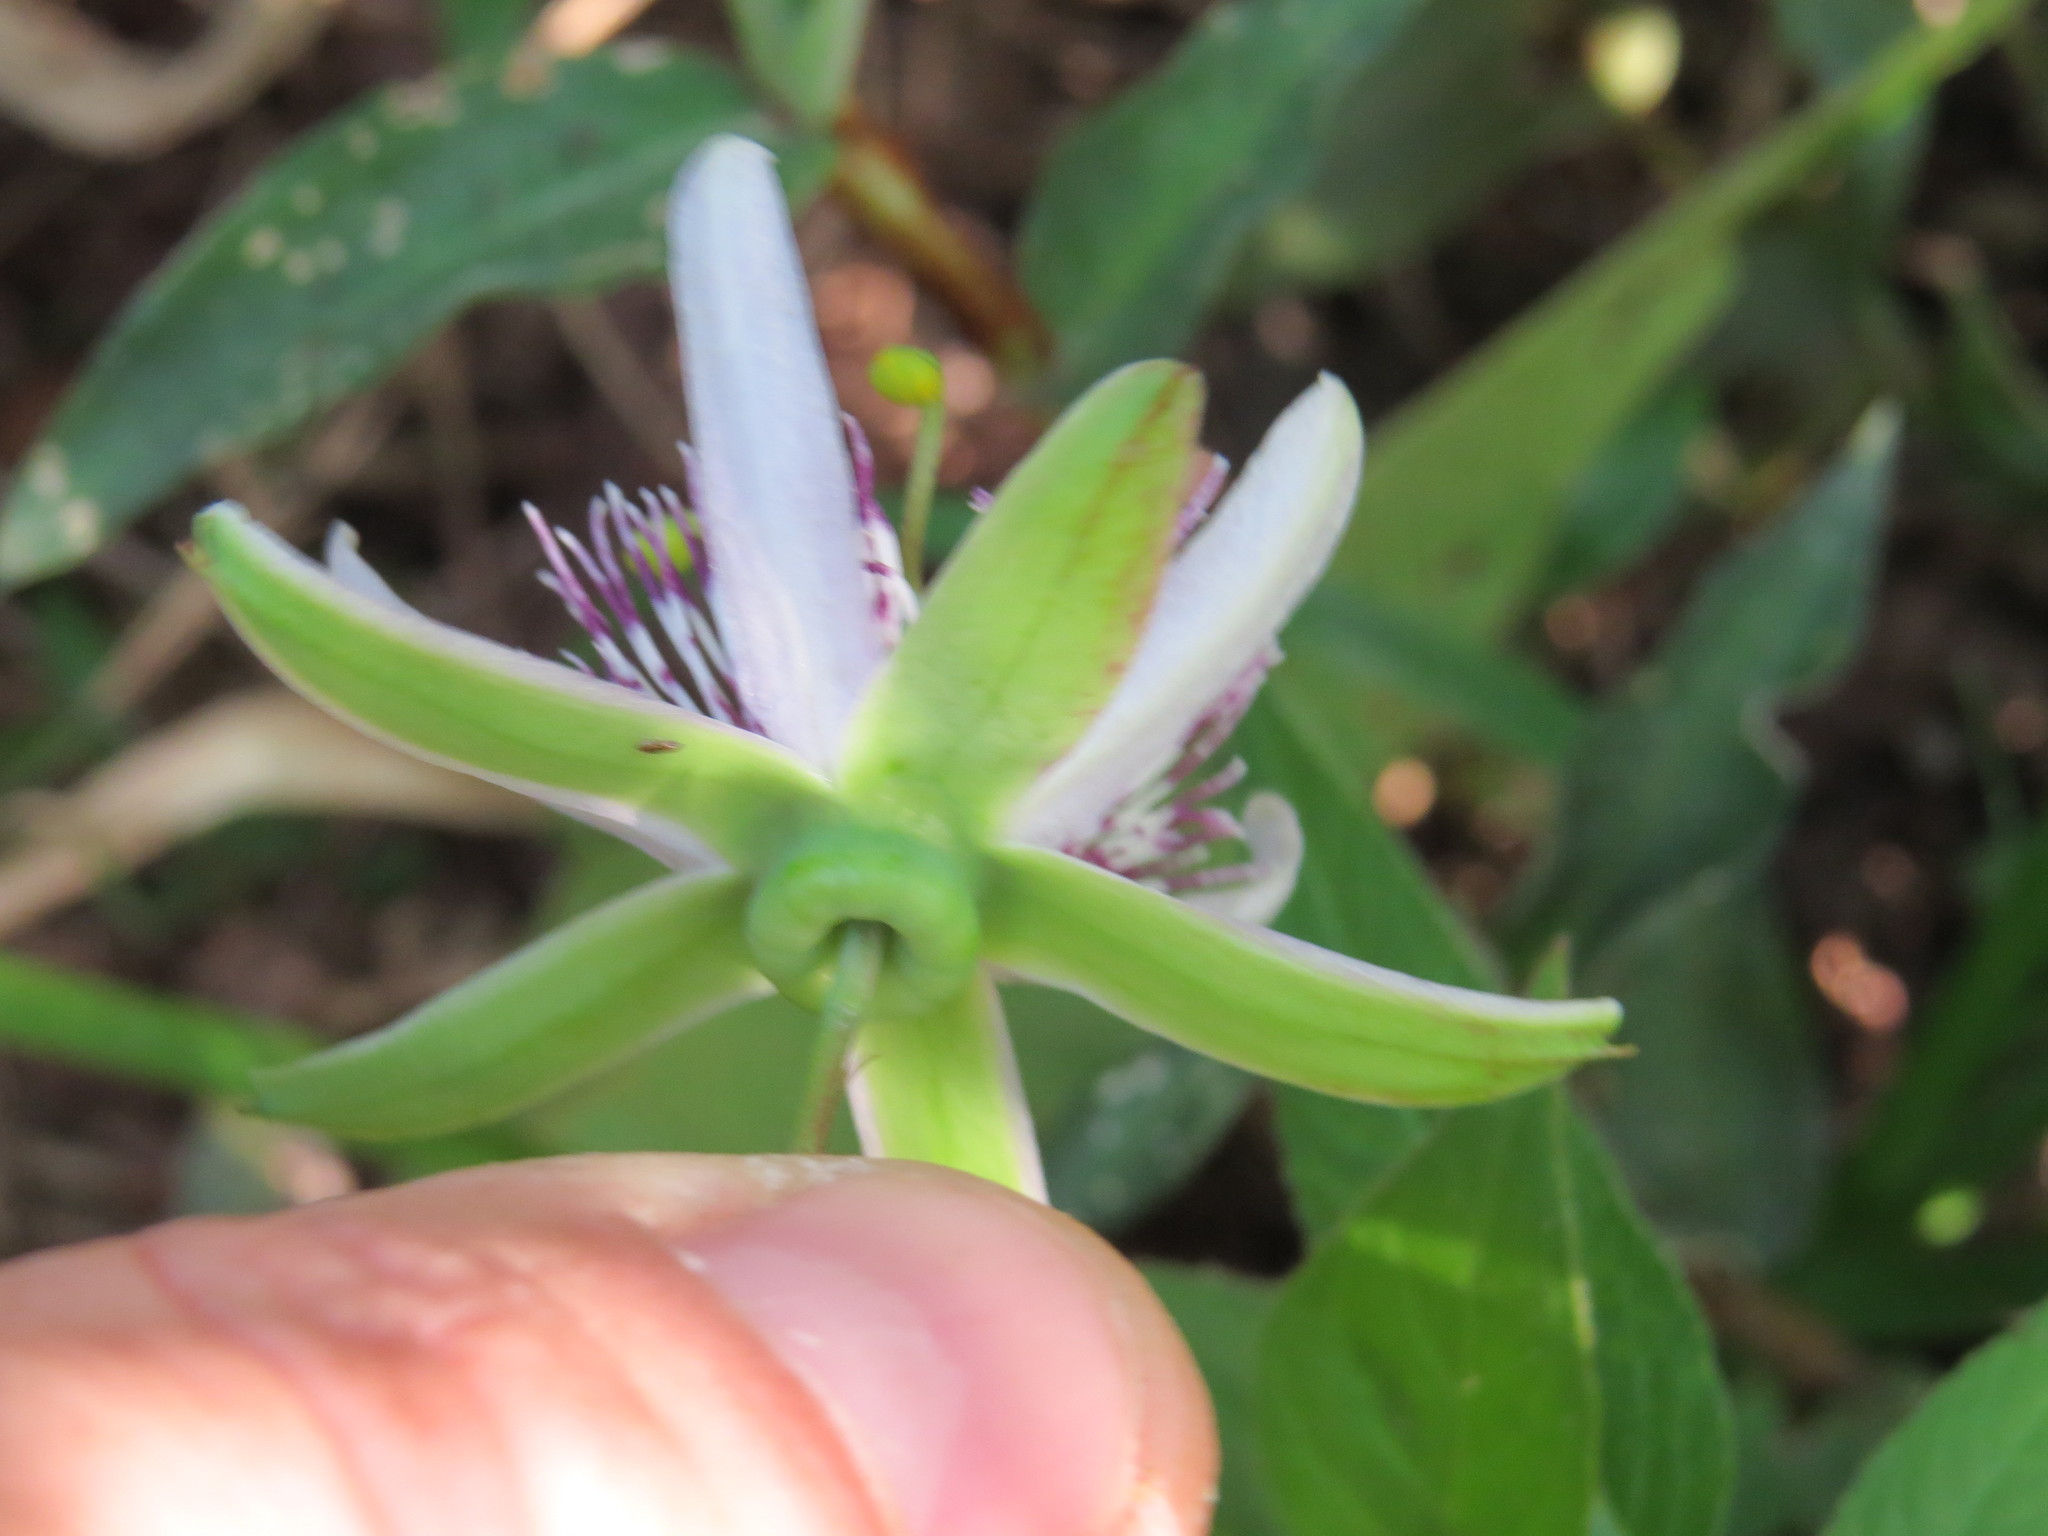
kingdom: Plantae
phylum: Tracheophyta
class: Magnoliopsida
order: Malpighiales
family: Passifloraceae
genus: Passiflora
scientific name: Passiflora miersii
